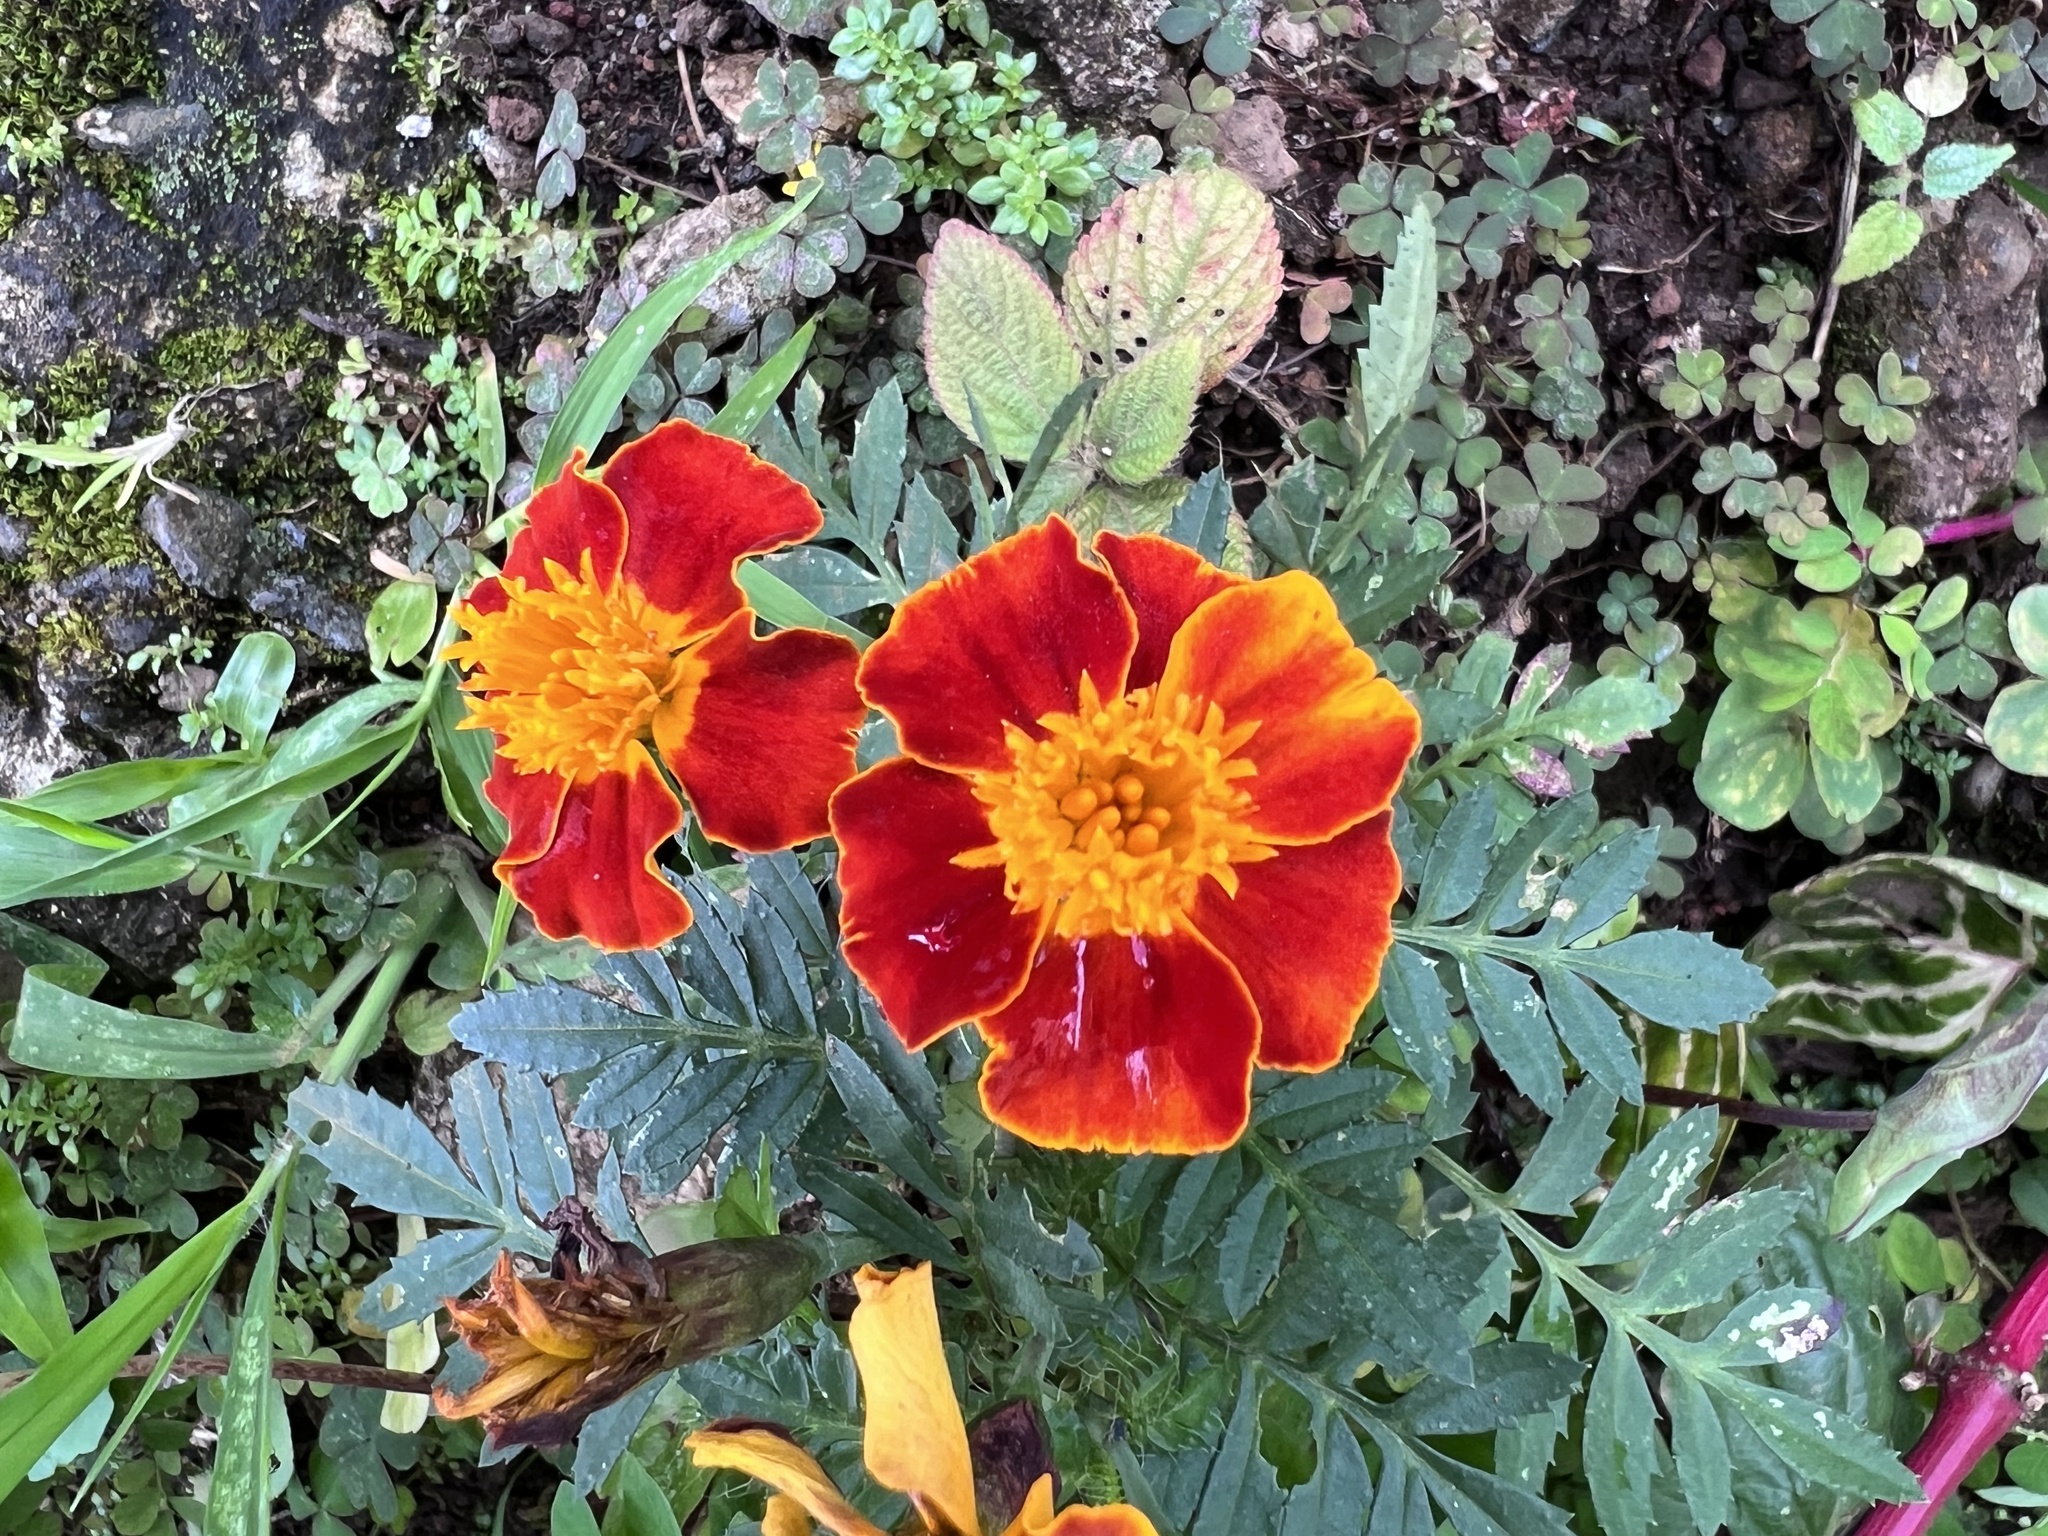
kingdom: Plantae
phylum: Tracheophyta
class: Magnoliopsida
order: Asterales
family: Asteraceae
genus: Tagetes
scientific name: Tagetes erecta
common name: African marigold
